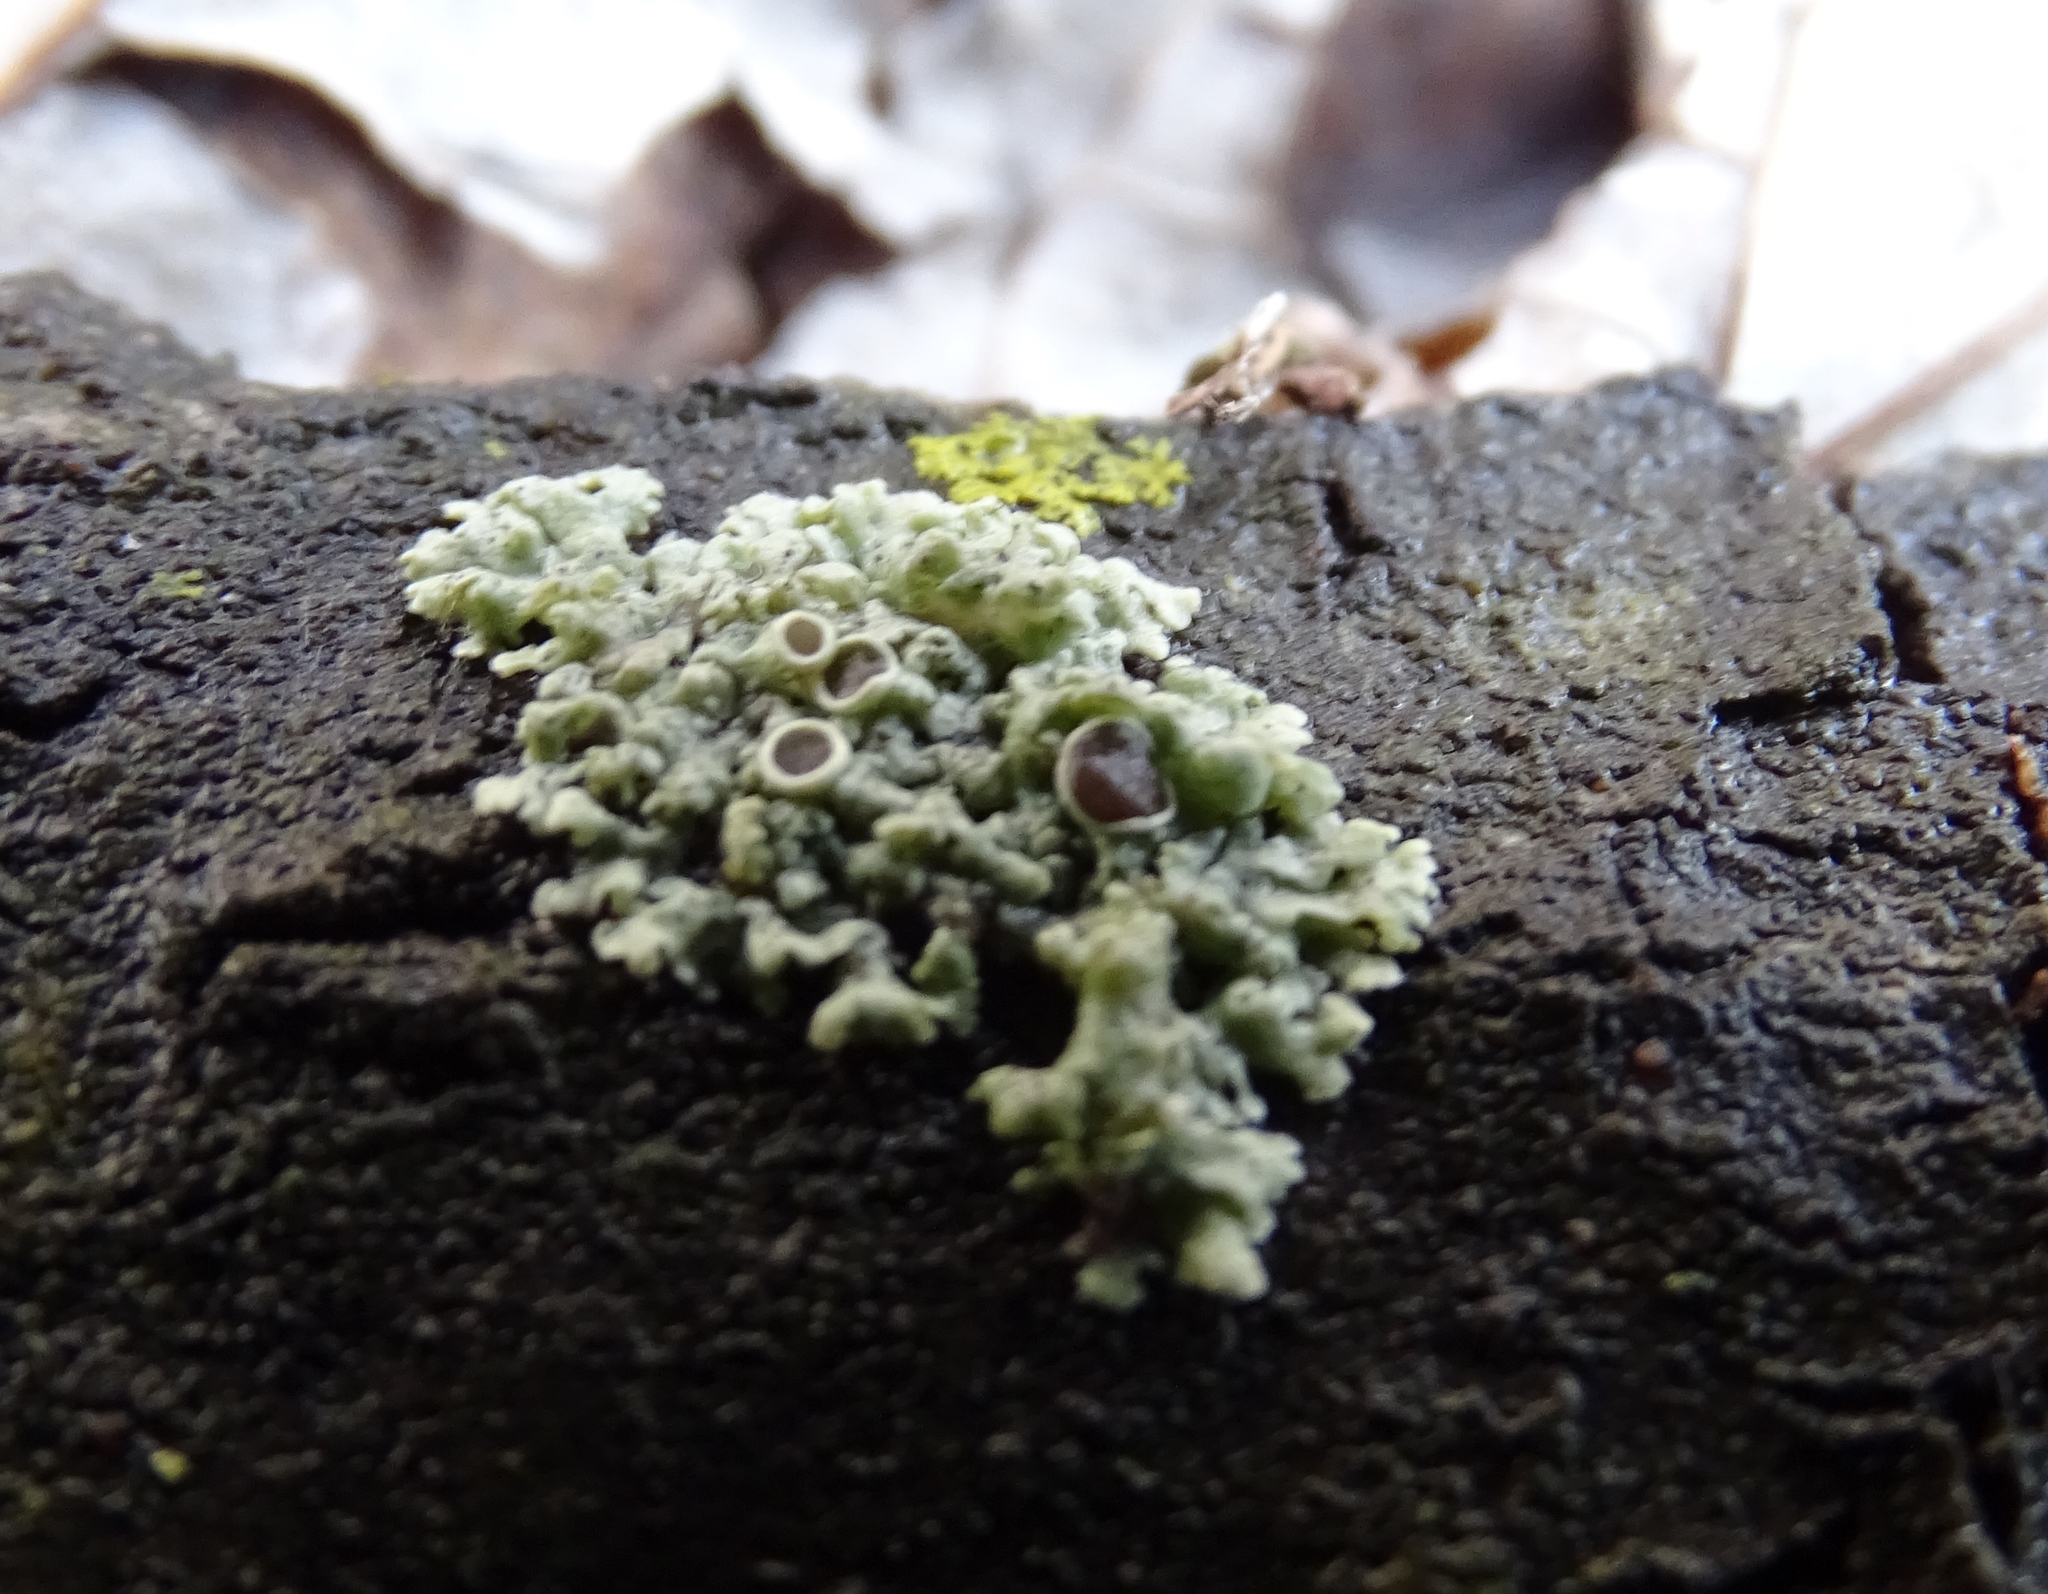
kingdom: Fungi
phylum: Ascomycota
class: Lecanoromycetes
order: Caliciales
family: Physciaceae
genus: Physcia
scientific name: Physcia stellaris
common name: Star rosette lichen
